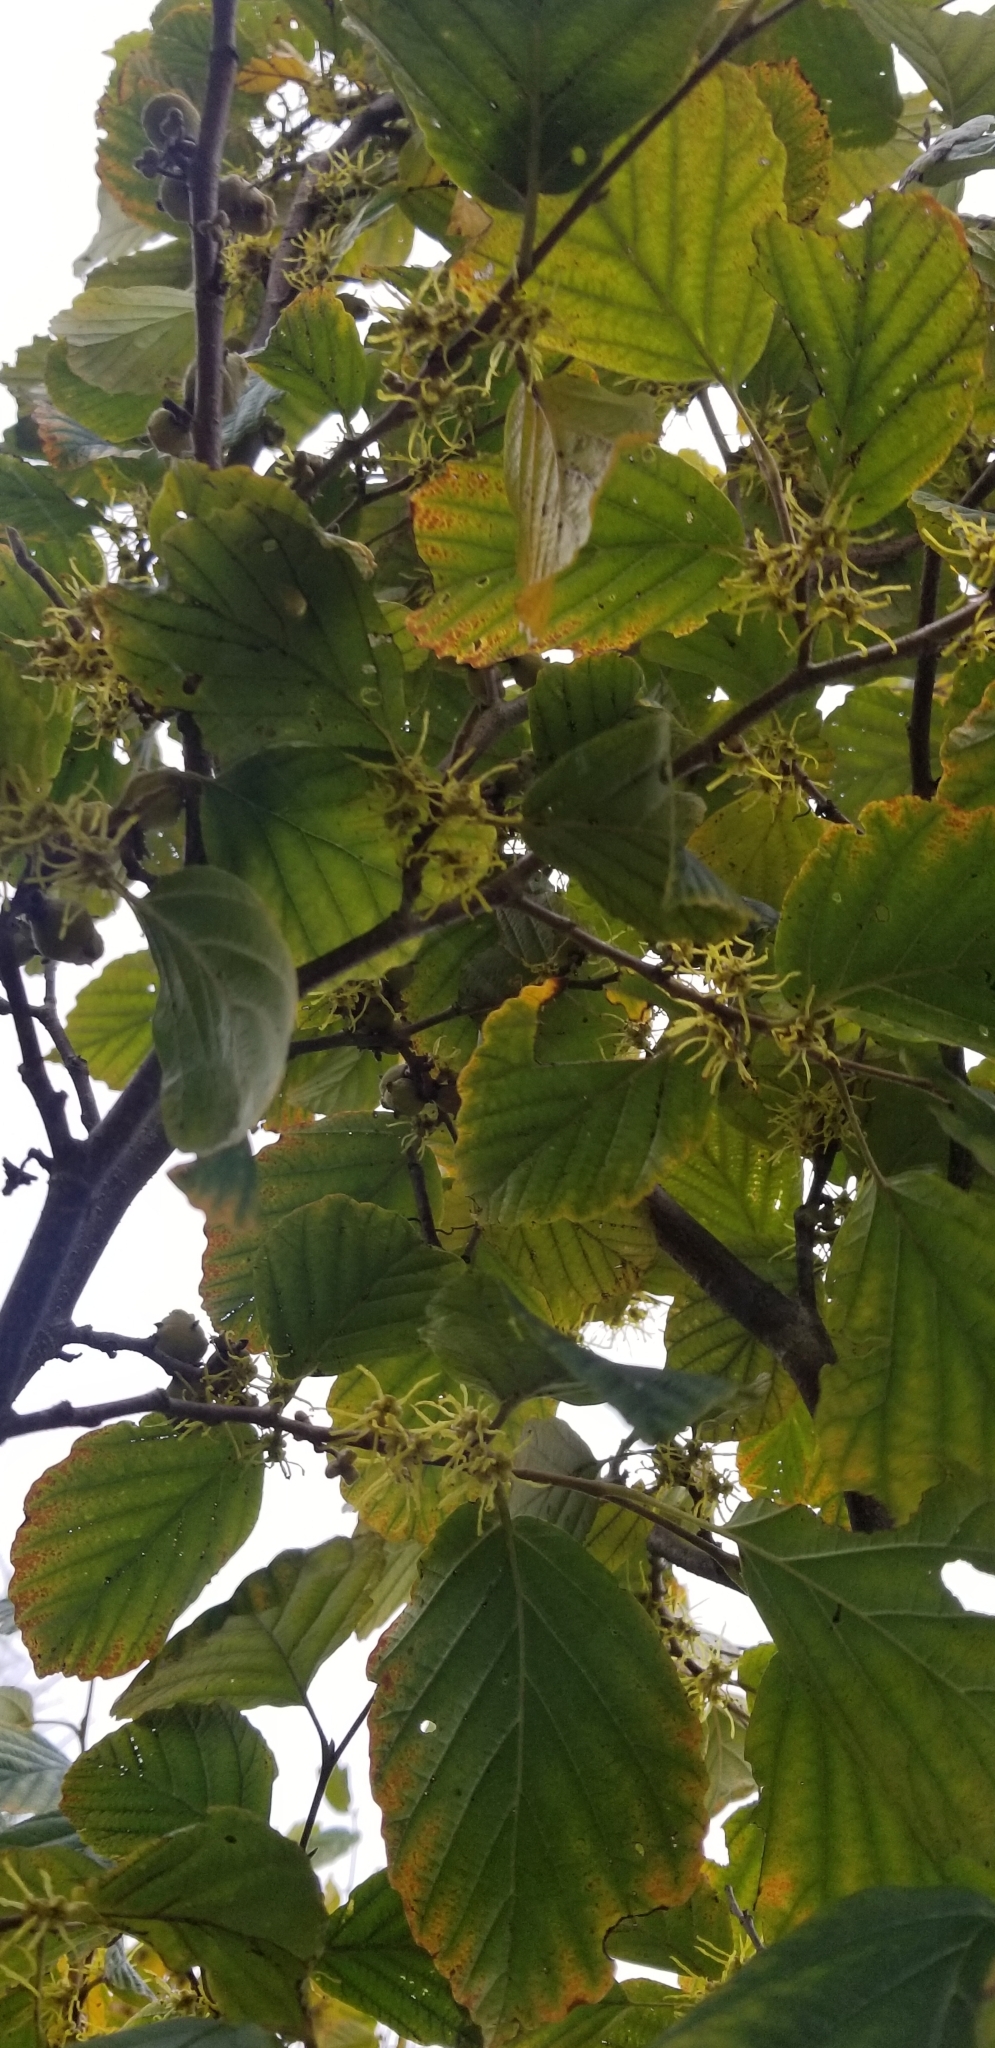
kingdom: Plantae
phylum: Tracheophyta
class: Magnoliopsida
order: Saxifragales
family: Hamamelidaceae
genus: Hamamelis
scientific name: Hamamelis virginiana
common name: Witch-hazel
